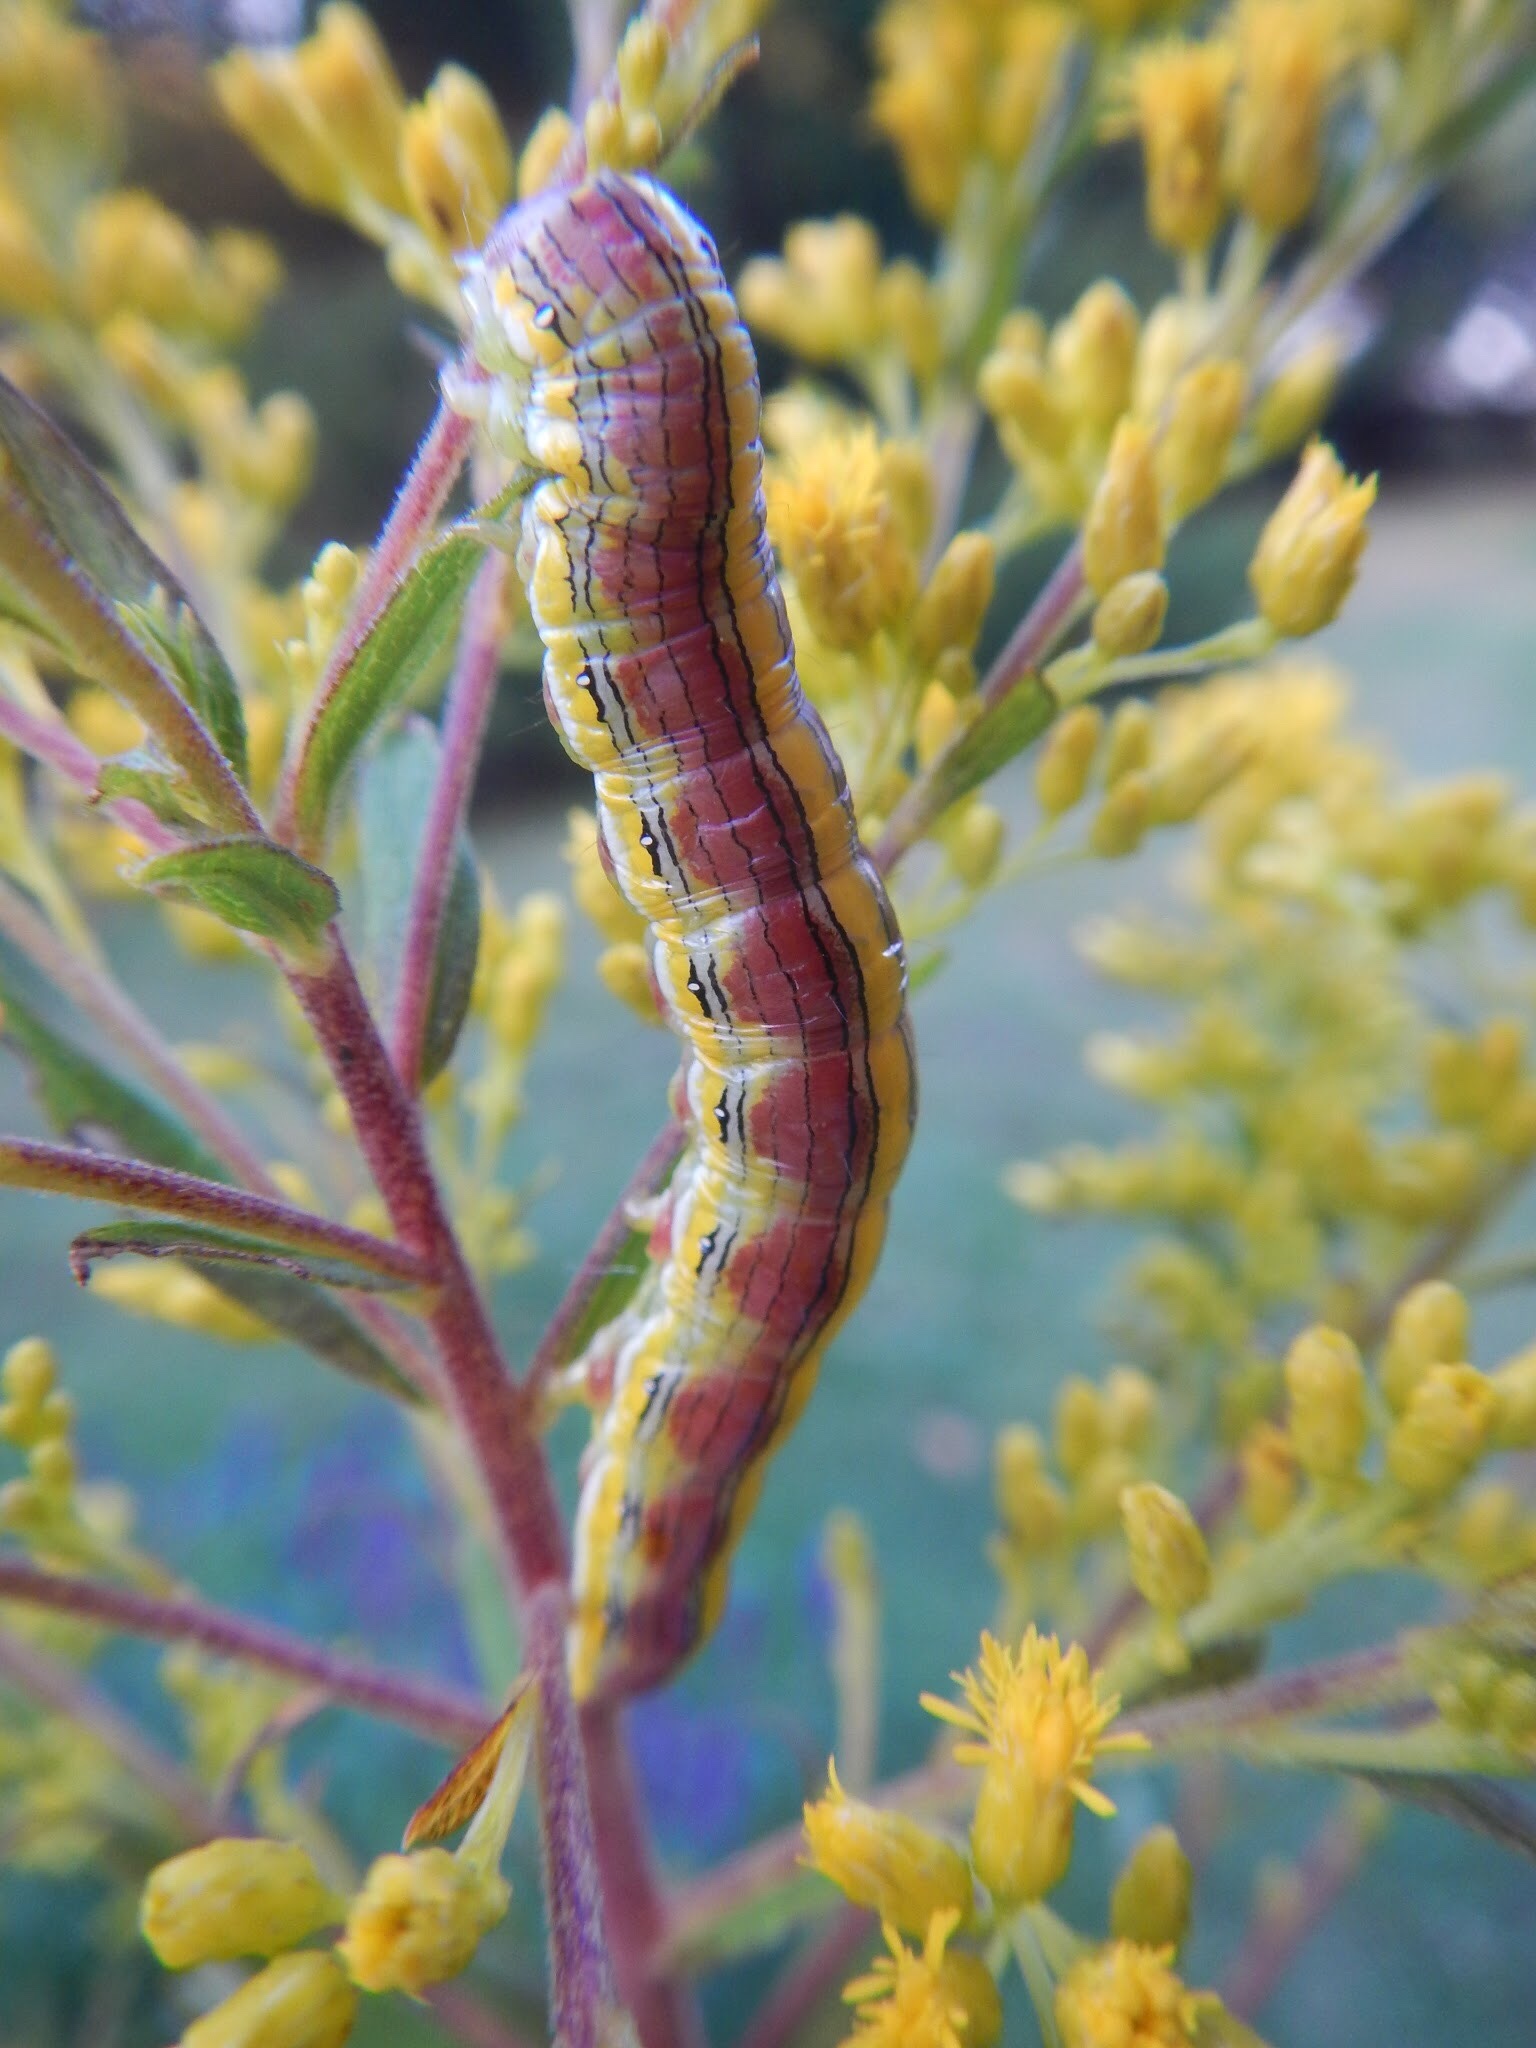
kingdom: Animalia
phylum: Arthropoda
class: Insecta
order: Lepidoptera
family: Noctuidae
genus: Cucullia
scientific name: Cucullia asteroides
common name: Asteroid moth
